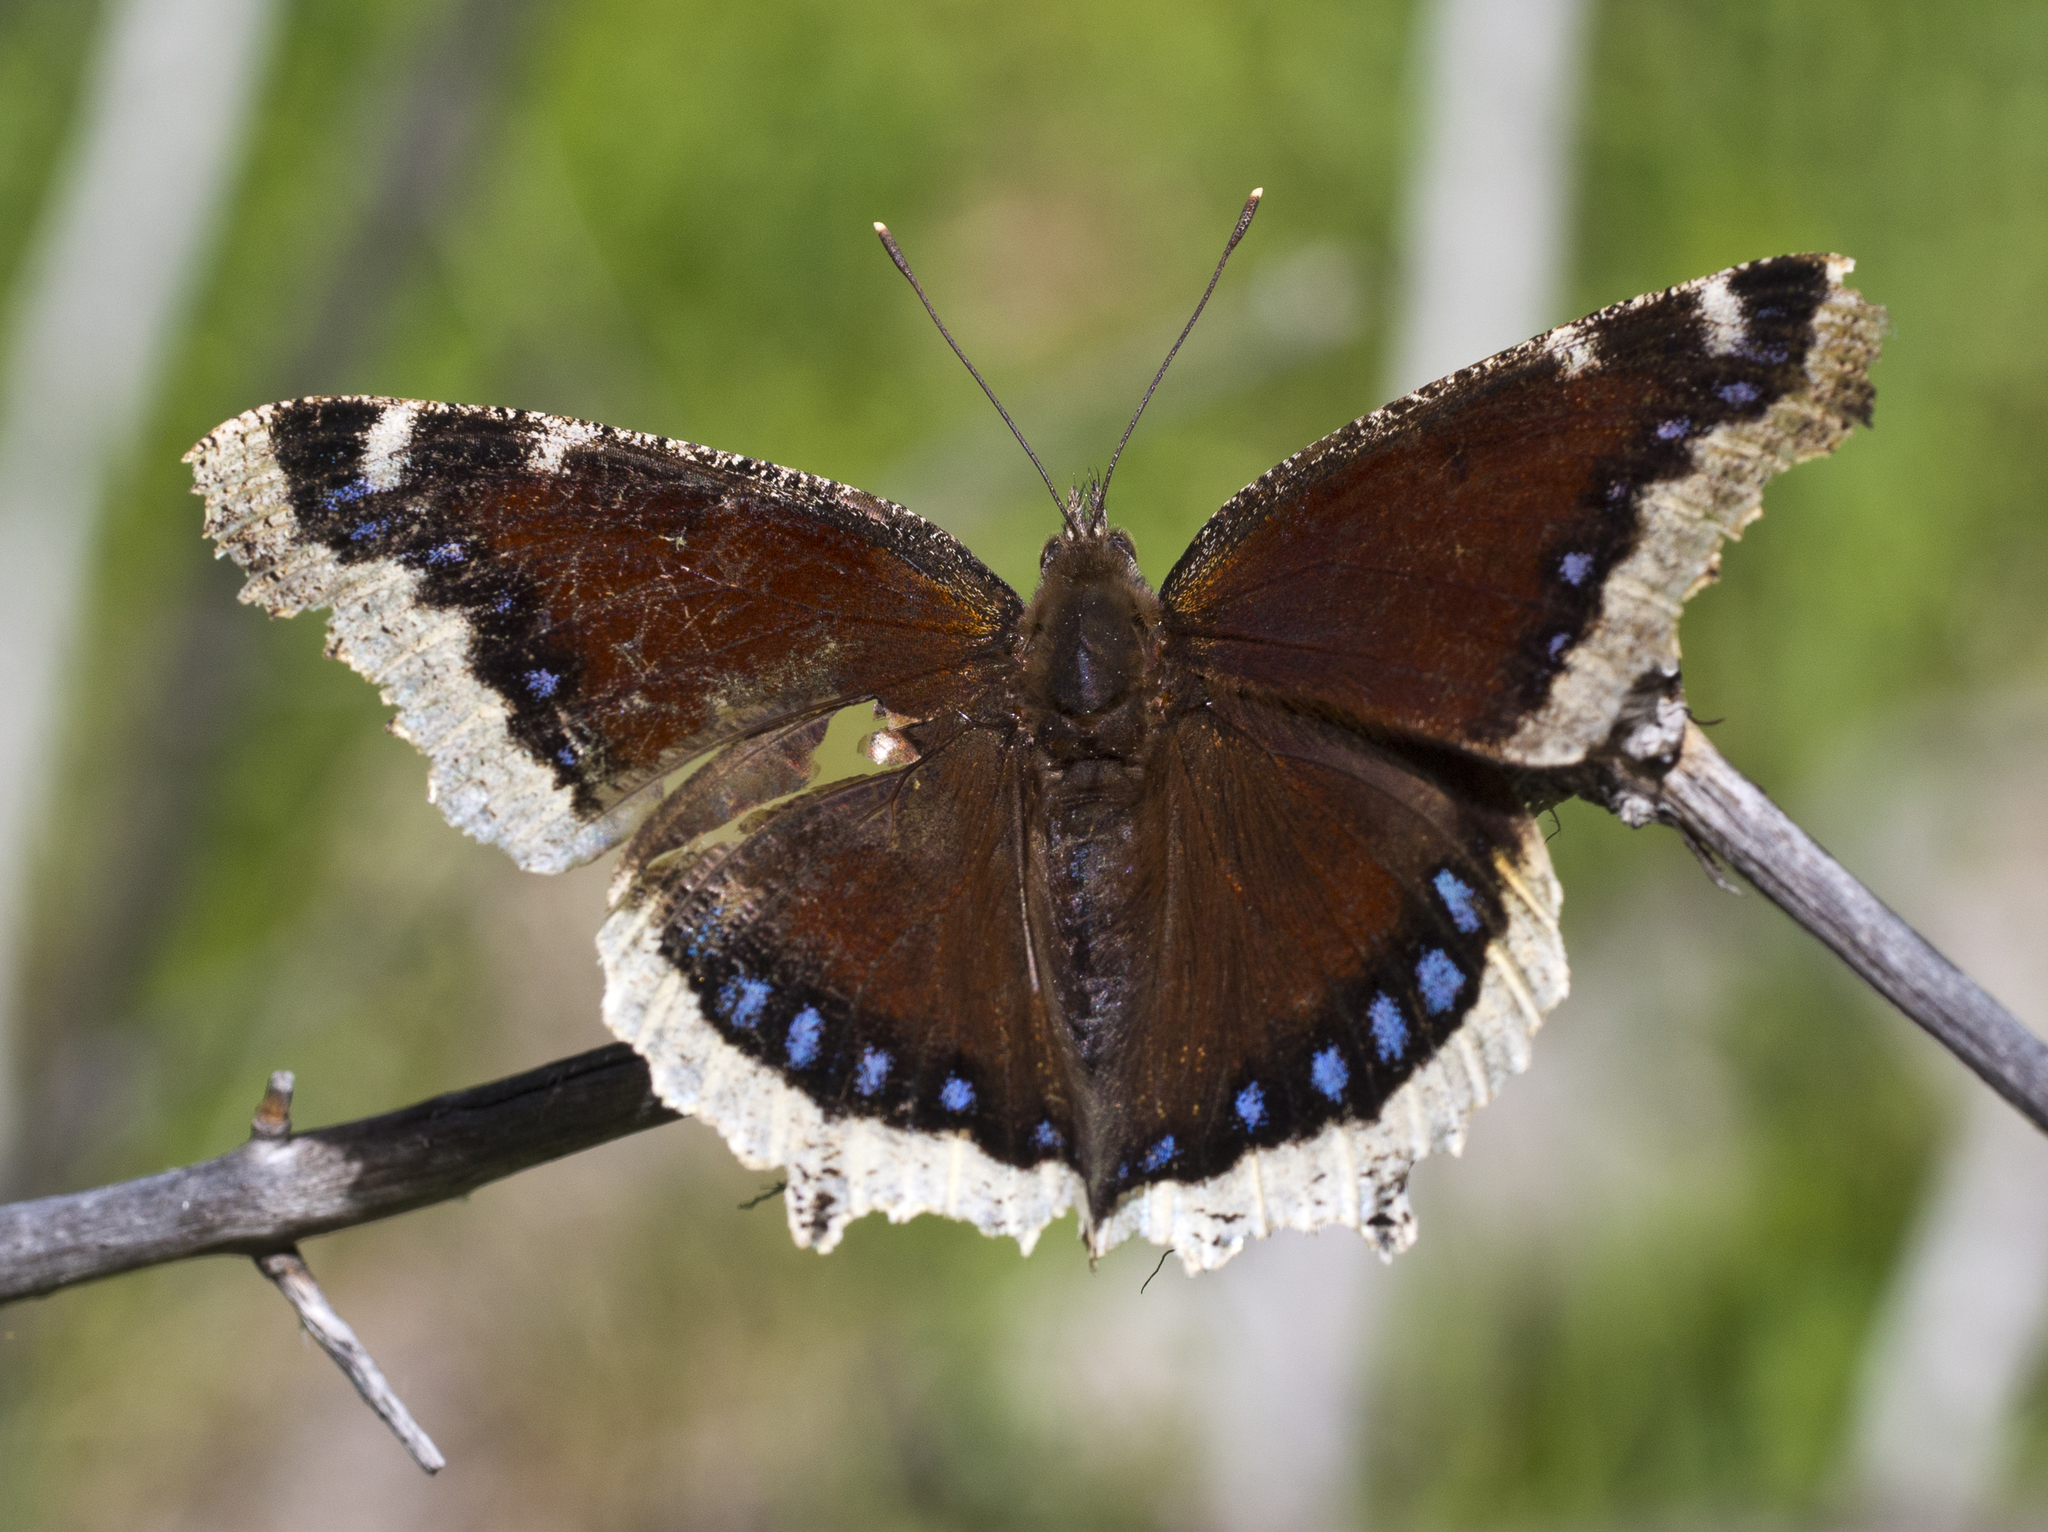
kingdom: Animalia
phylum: Arthropoda
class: Insecta
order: Lepidoptera
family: Nymphalidae
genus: Nymphalis
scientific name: Nymphalis antiopa
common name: Camberwell beauty
